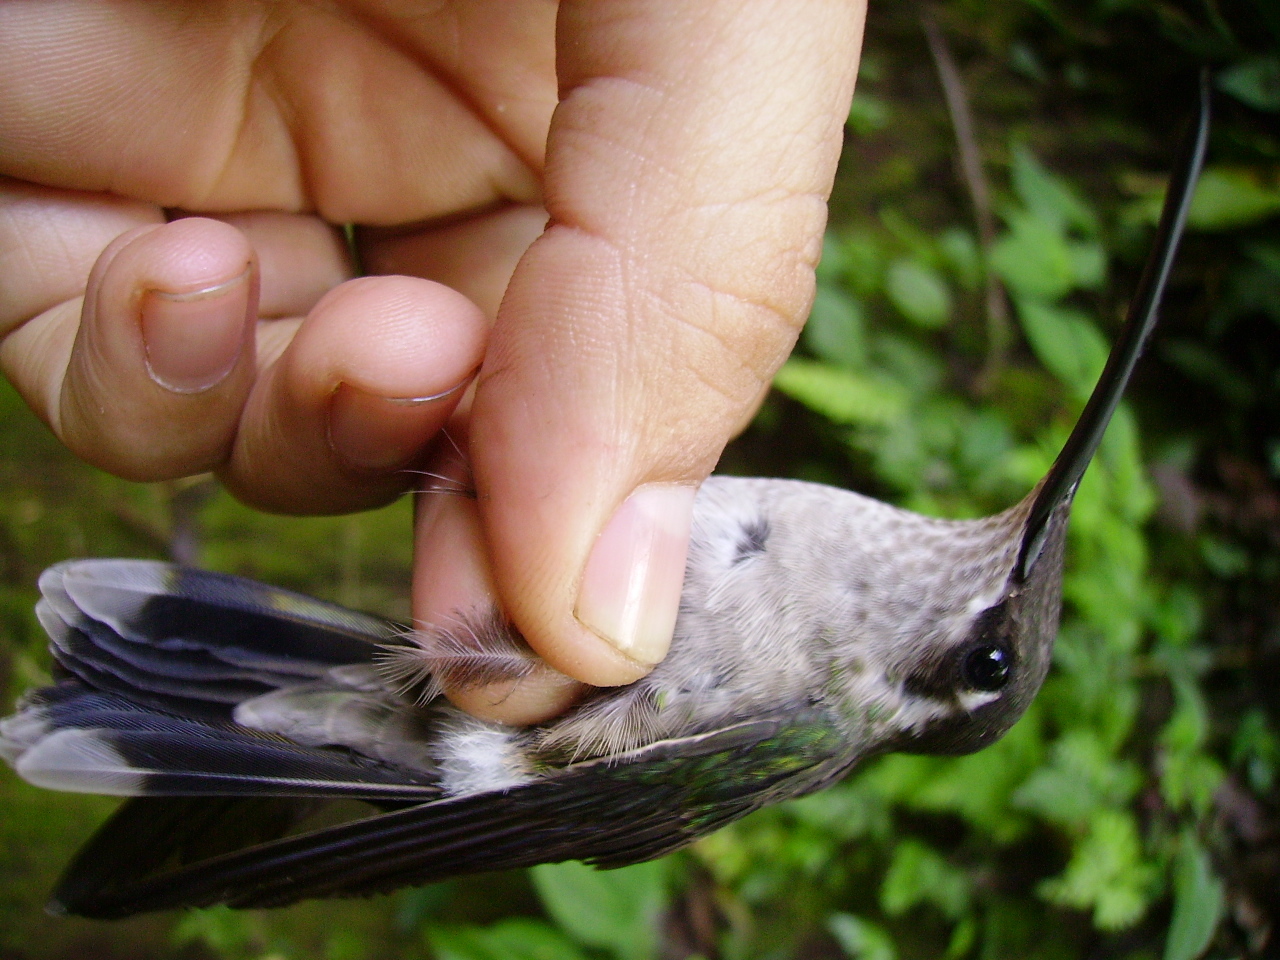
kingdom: Animalia
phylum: Chordata
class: Aves
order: Apodiformes
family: Trochilidae
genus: Eugenes
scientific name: Eugenes fulgens
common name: Magnificent hummingbird
